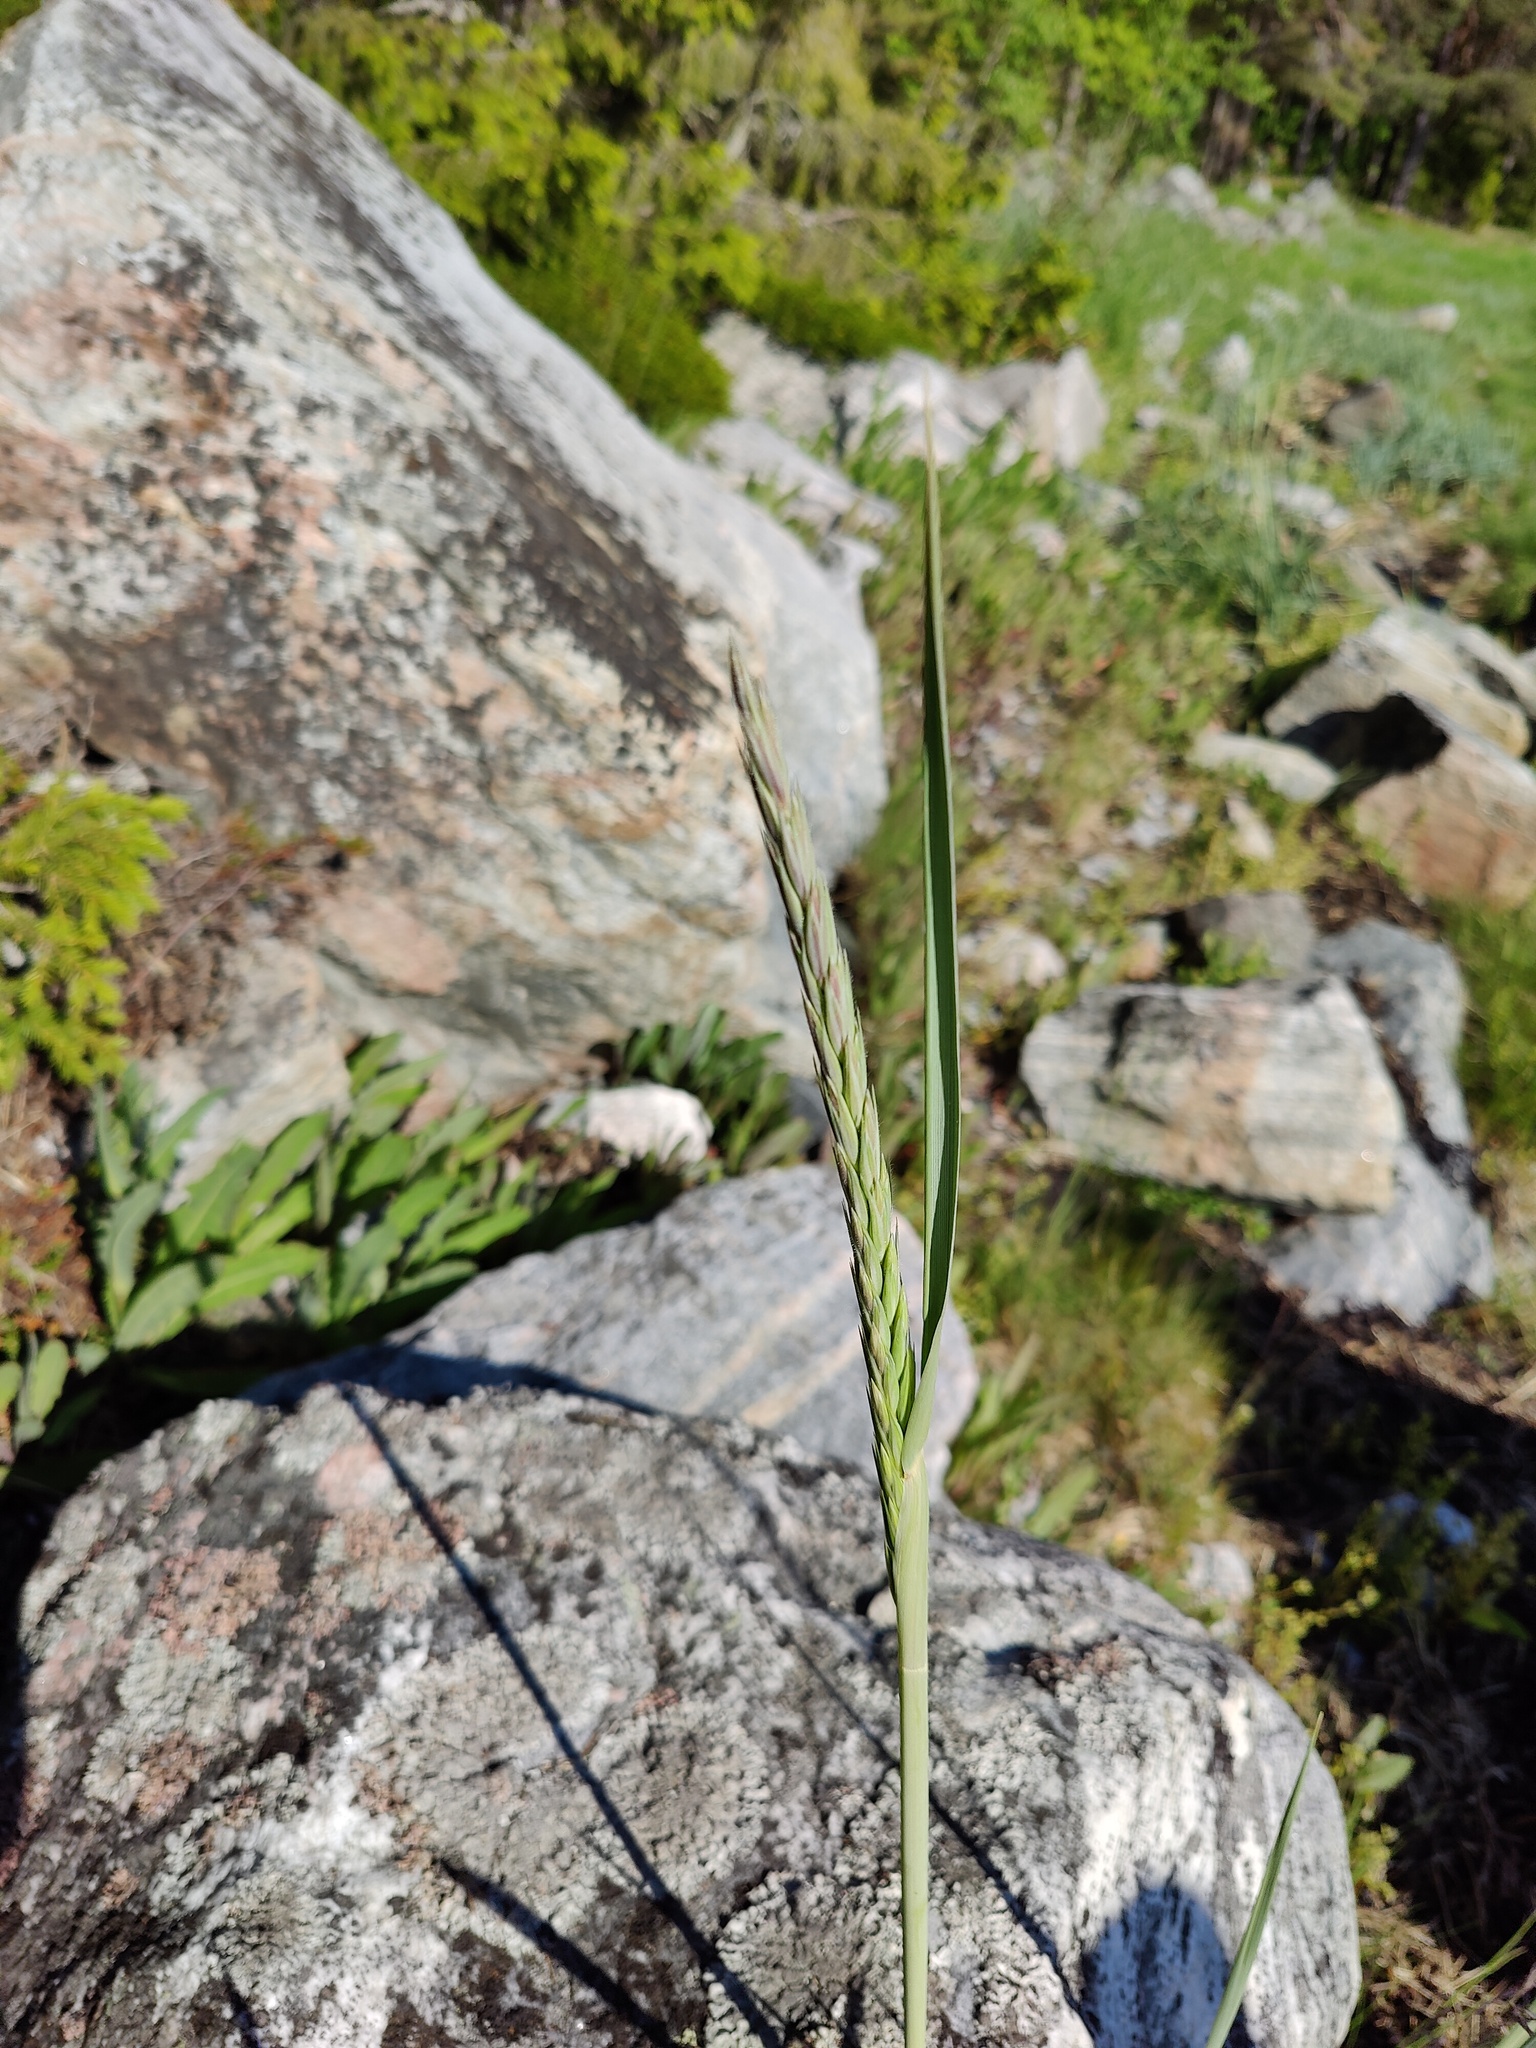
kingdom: Plantae
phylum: Tracheophyta
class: Liliopsida
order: Poales
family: Poaceae
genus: Leymus
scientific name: Leymus arenarius
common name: Lyme-grass
